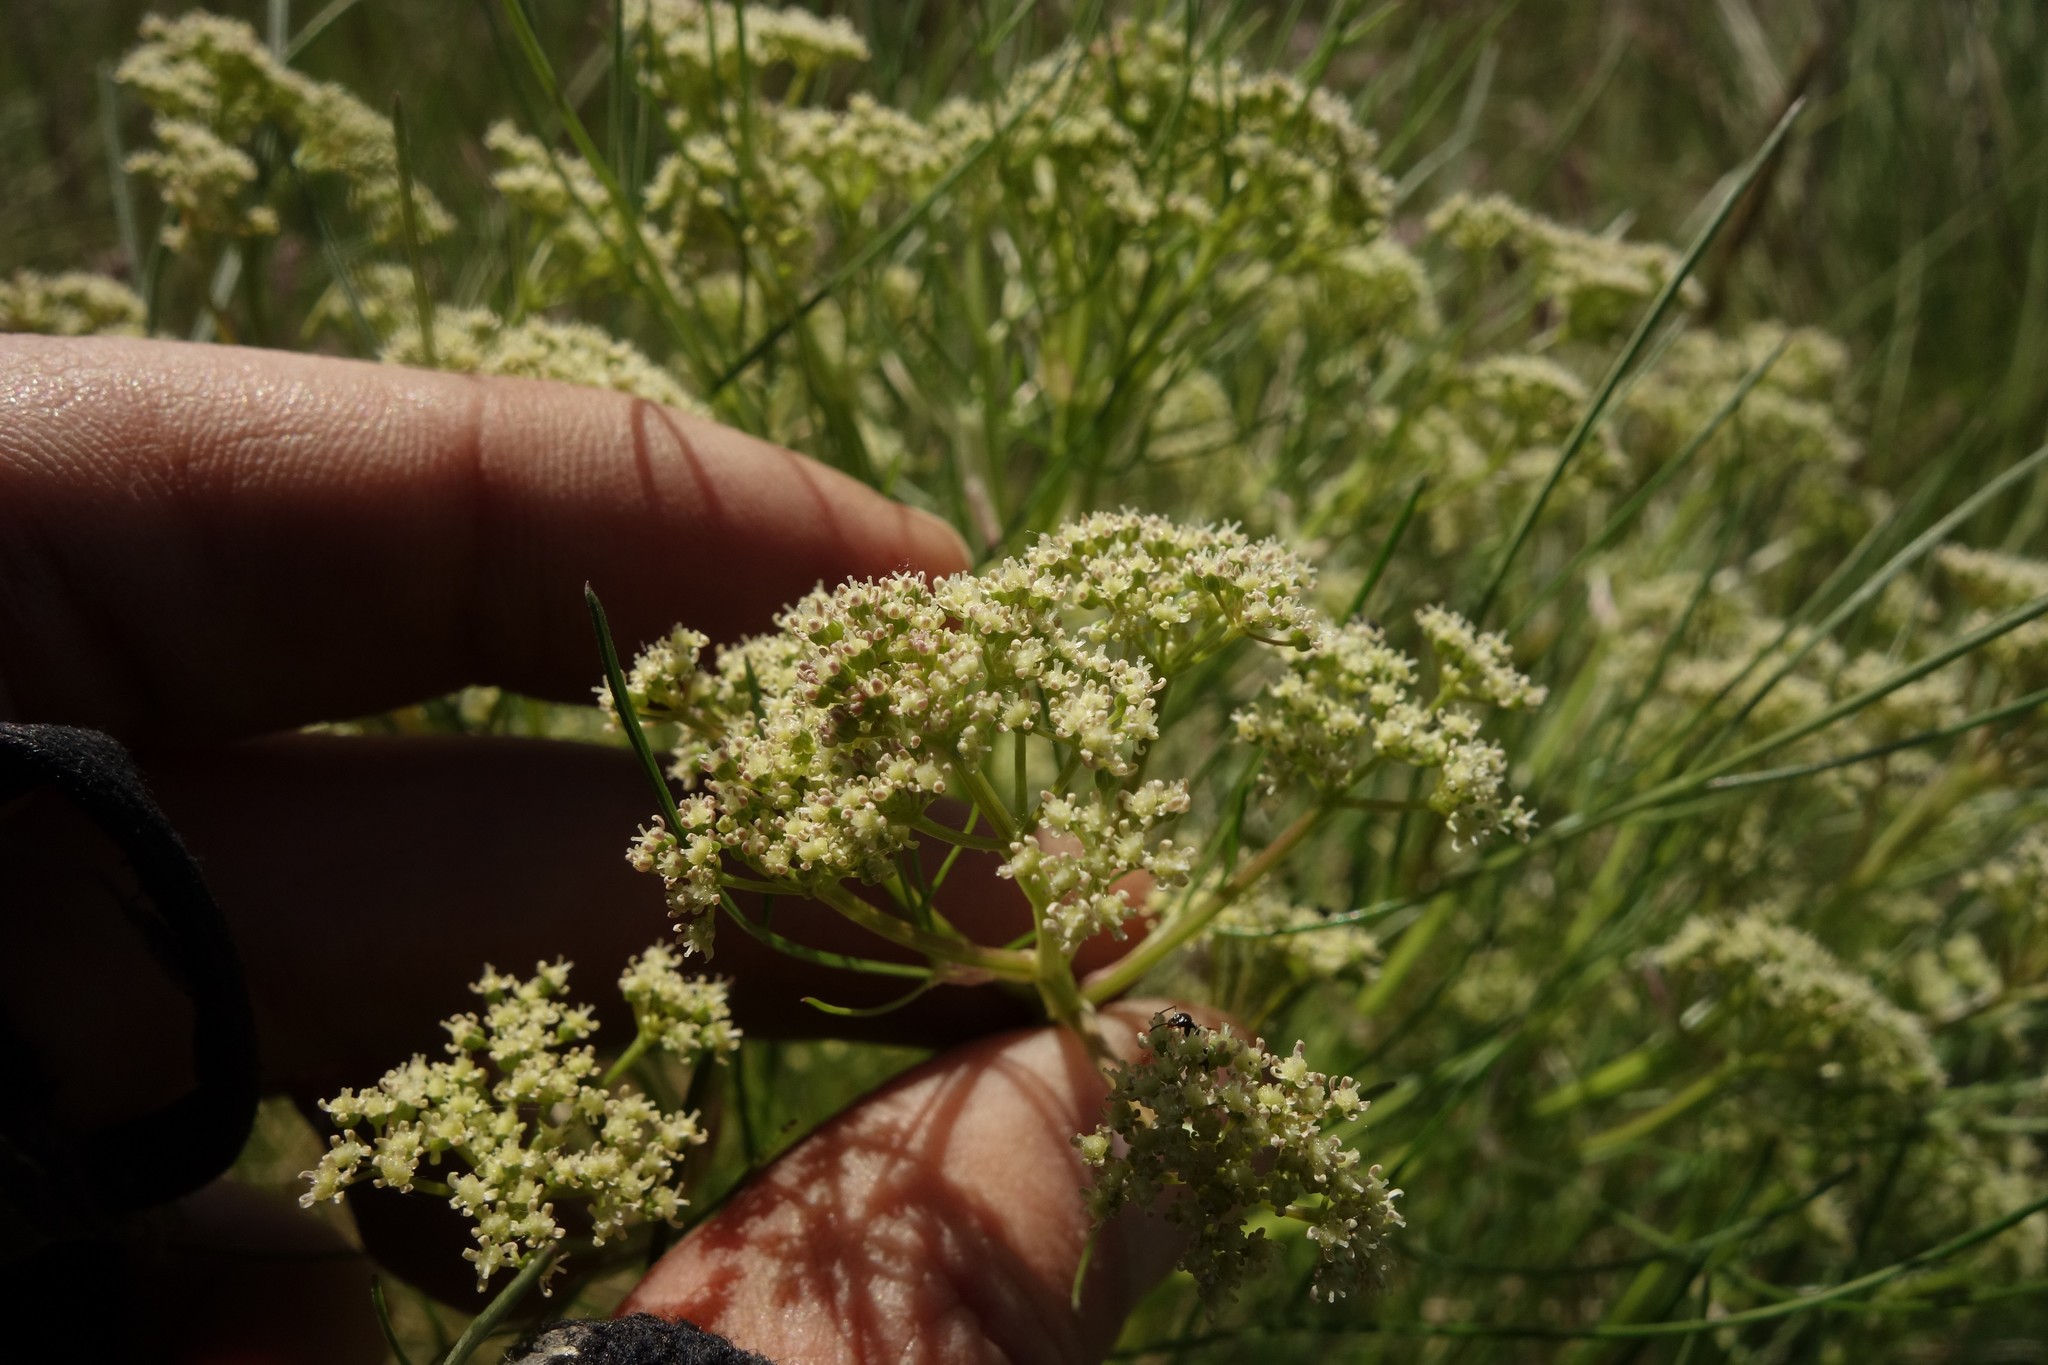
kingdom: Plantae
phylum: Tracheophyta
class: Magnoliopsida
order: Apiales
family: Apiaceae
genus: Trinia
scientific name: Trinia multicaulis
